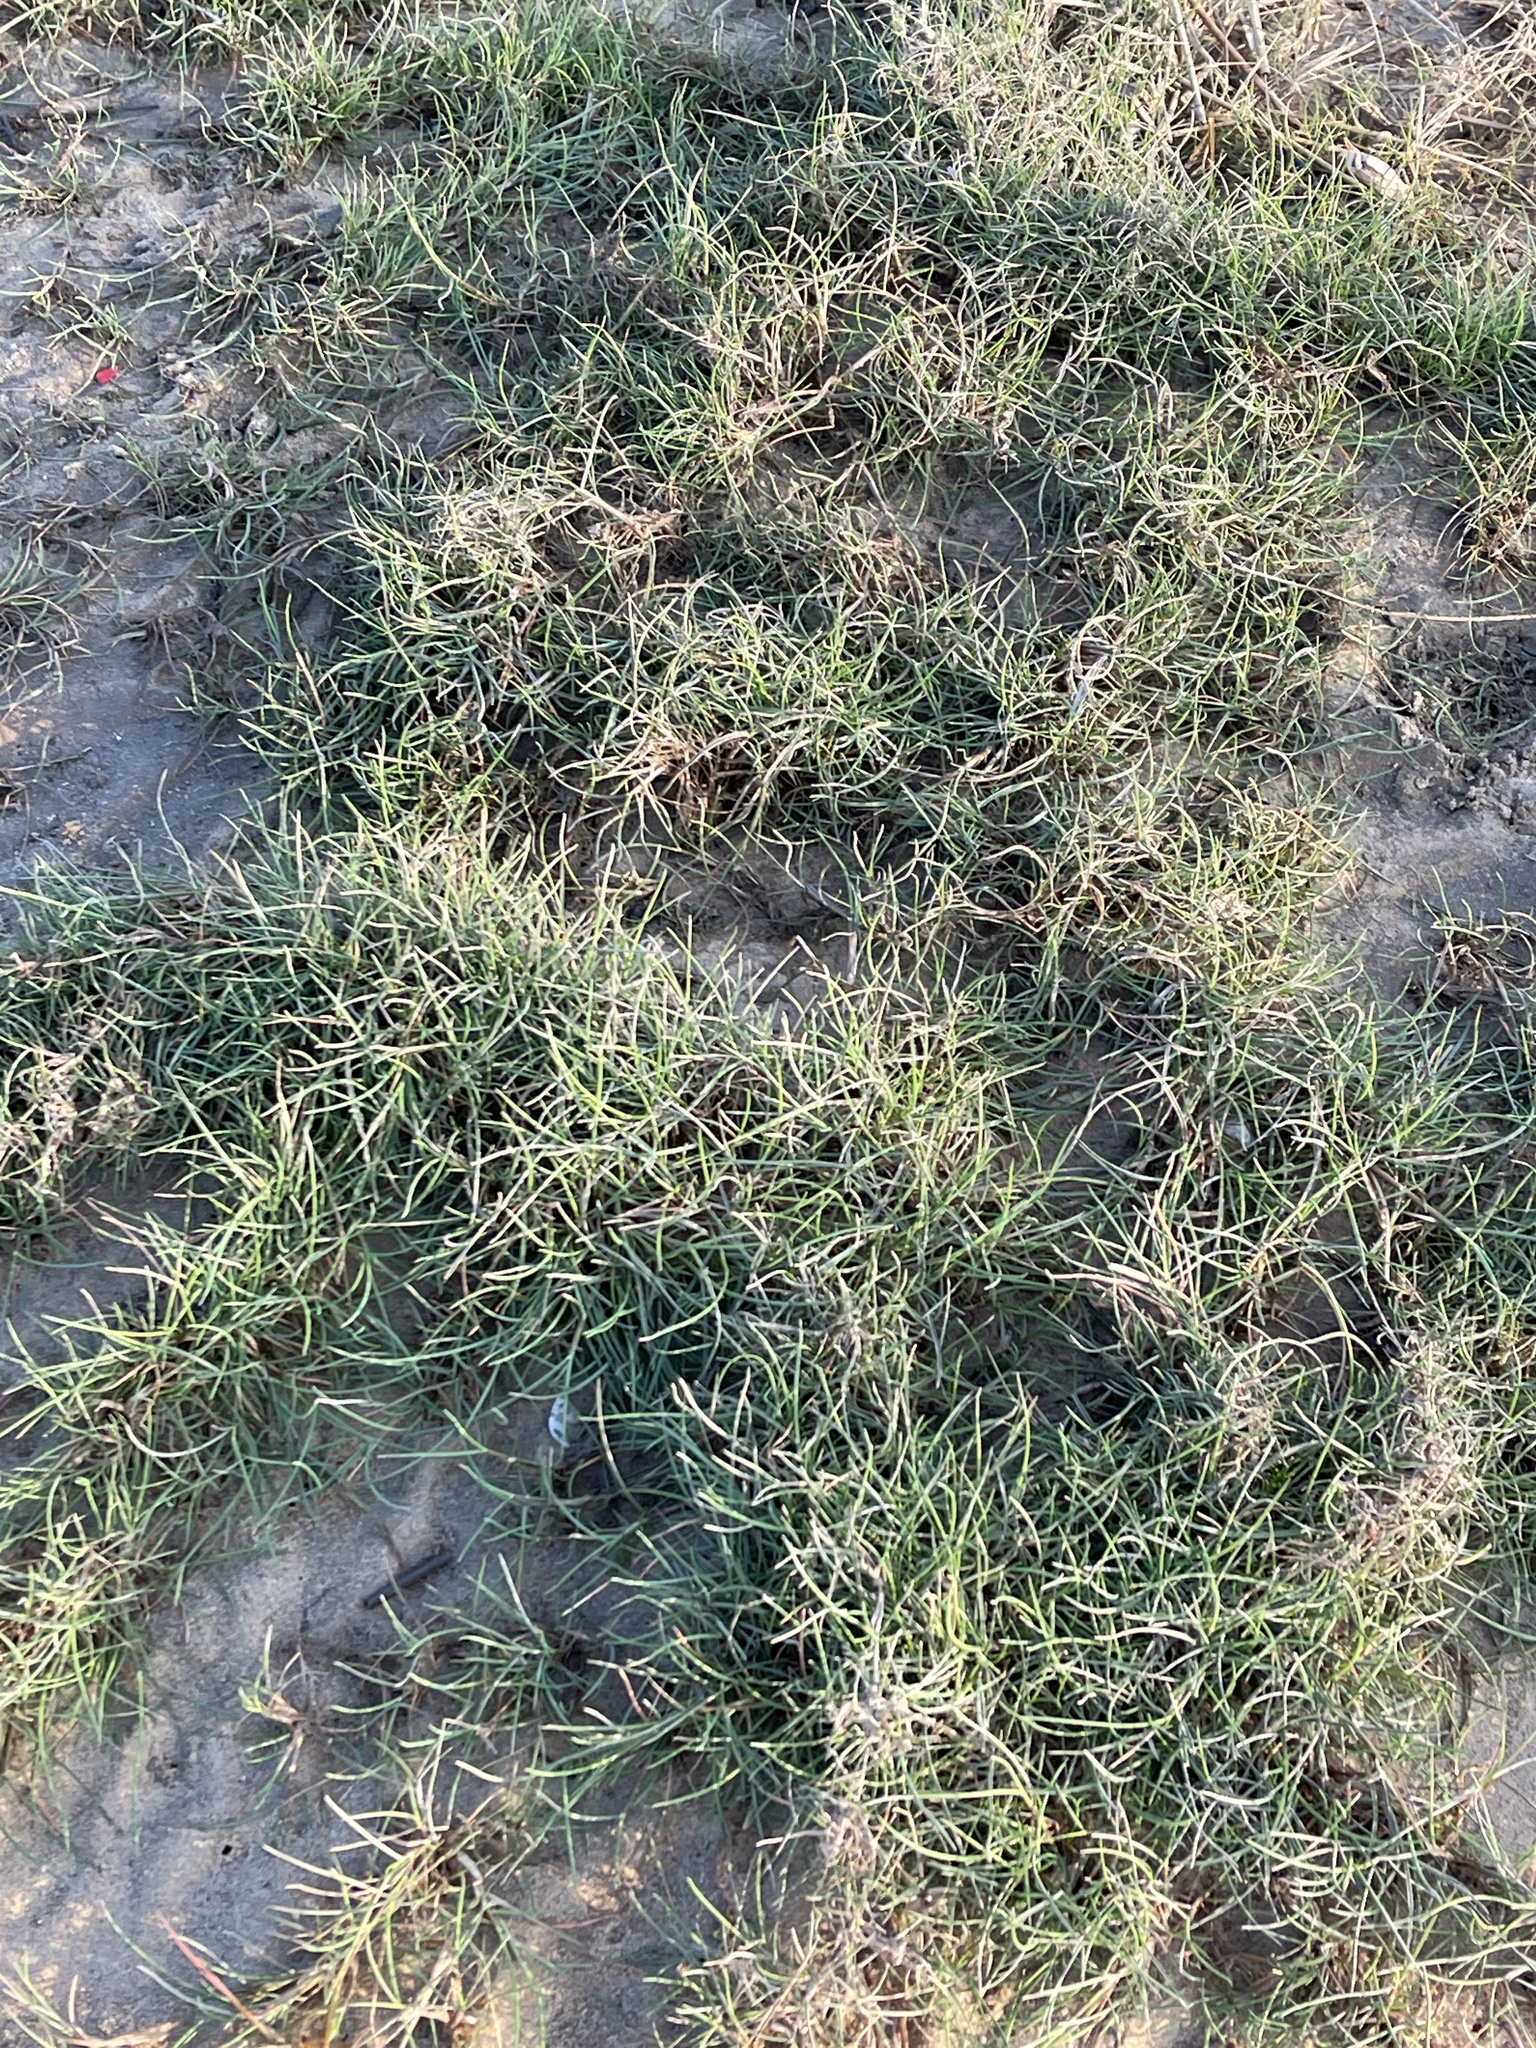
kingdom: Plantae
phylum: Tracheophyta
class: Liliopsida
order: Poales
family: Poaceae
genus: Puccinellia
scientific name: Puccinellia maritima
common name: Common saltmarsh grass
